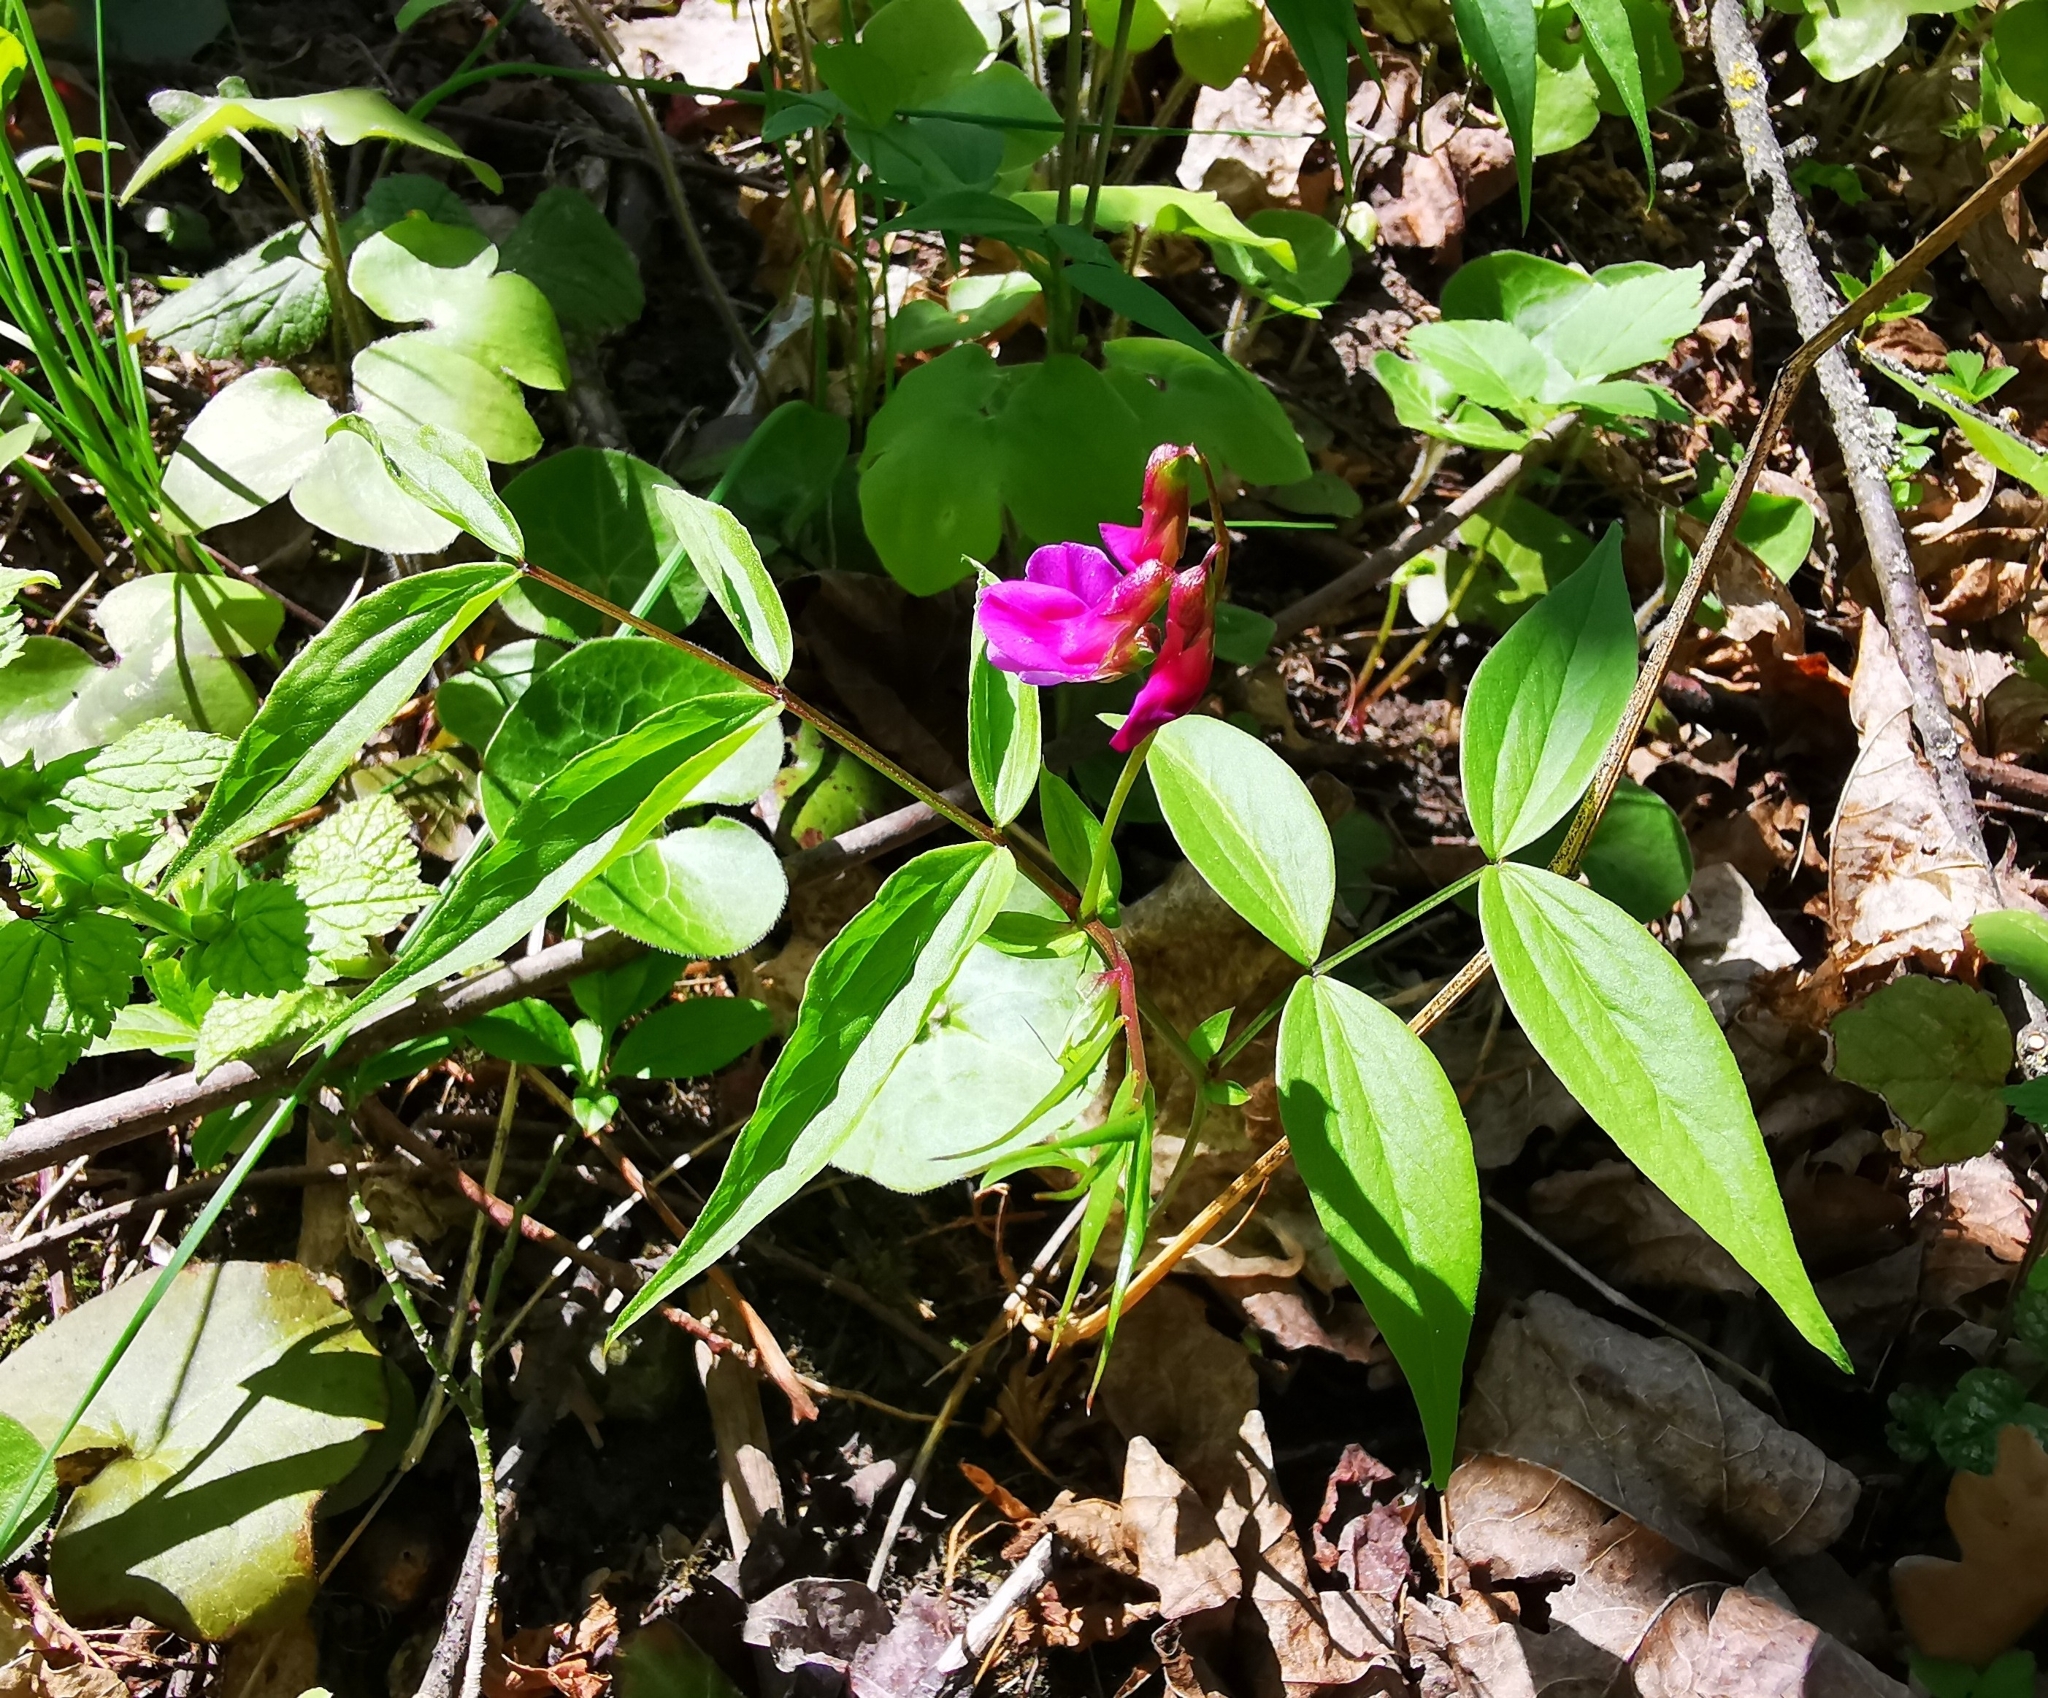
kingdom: Plantae
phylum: Tracheophyta
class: Magnoliopsida
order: Fabales
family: Fabaceae
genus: Lathyrus
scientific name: Lathyrus vernus
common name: Spring pea
